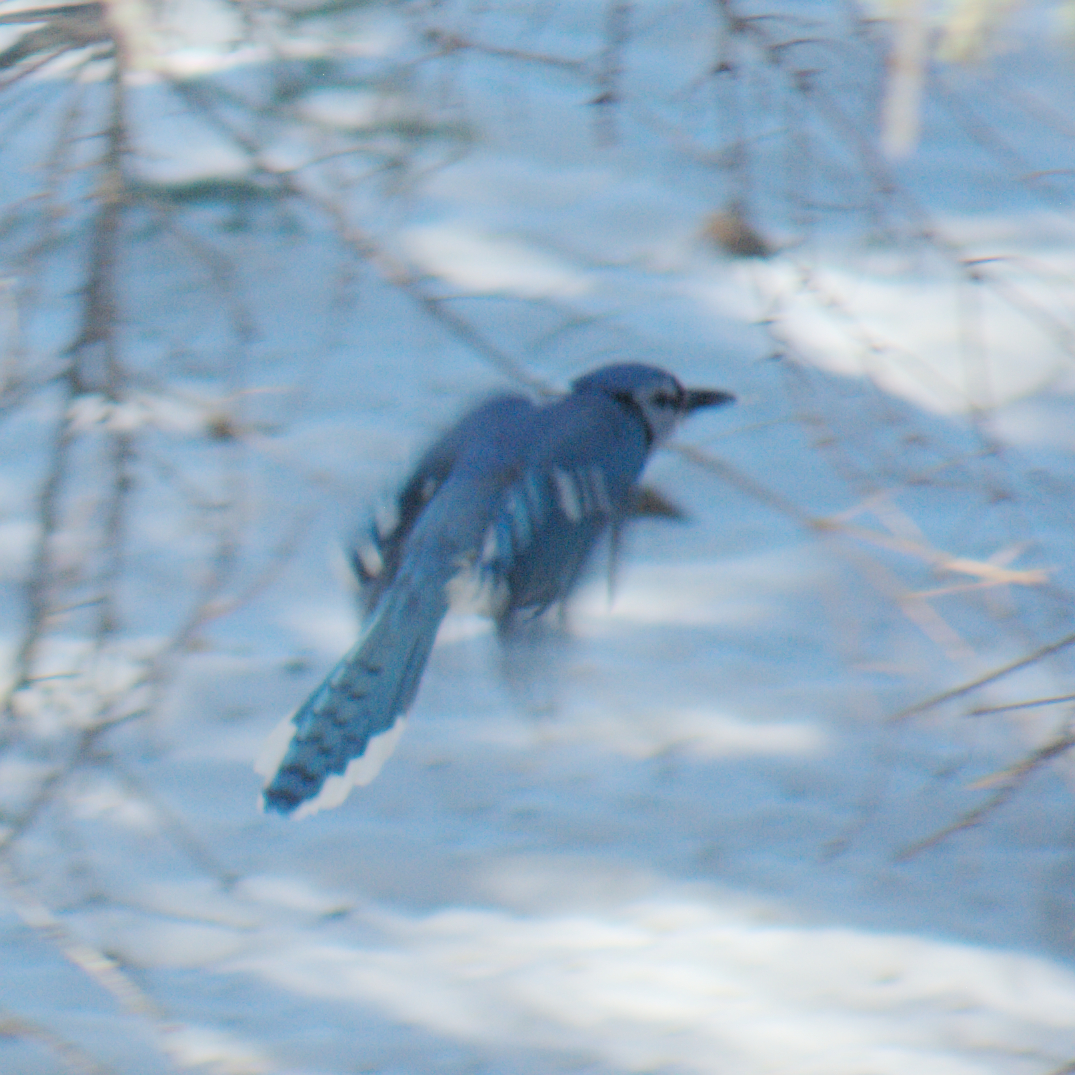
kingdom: Animalia
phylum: Chordata
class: Aves
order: Passeriformes
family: Corvidae
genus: Cyanocitta
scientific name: Cyanocitta cristata
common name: Blue jay
